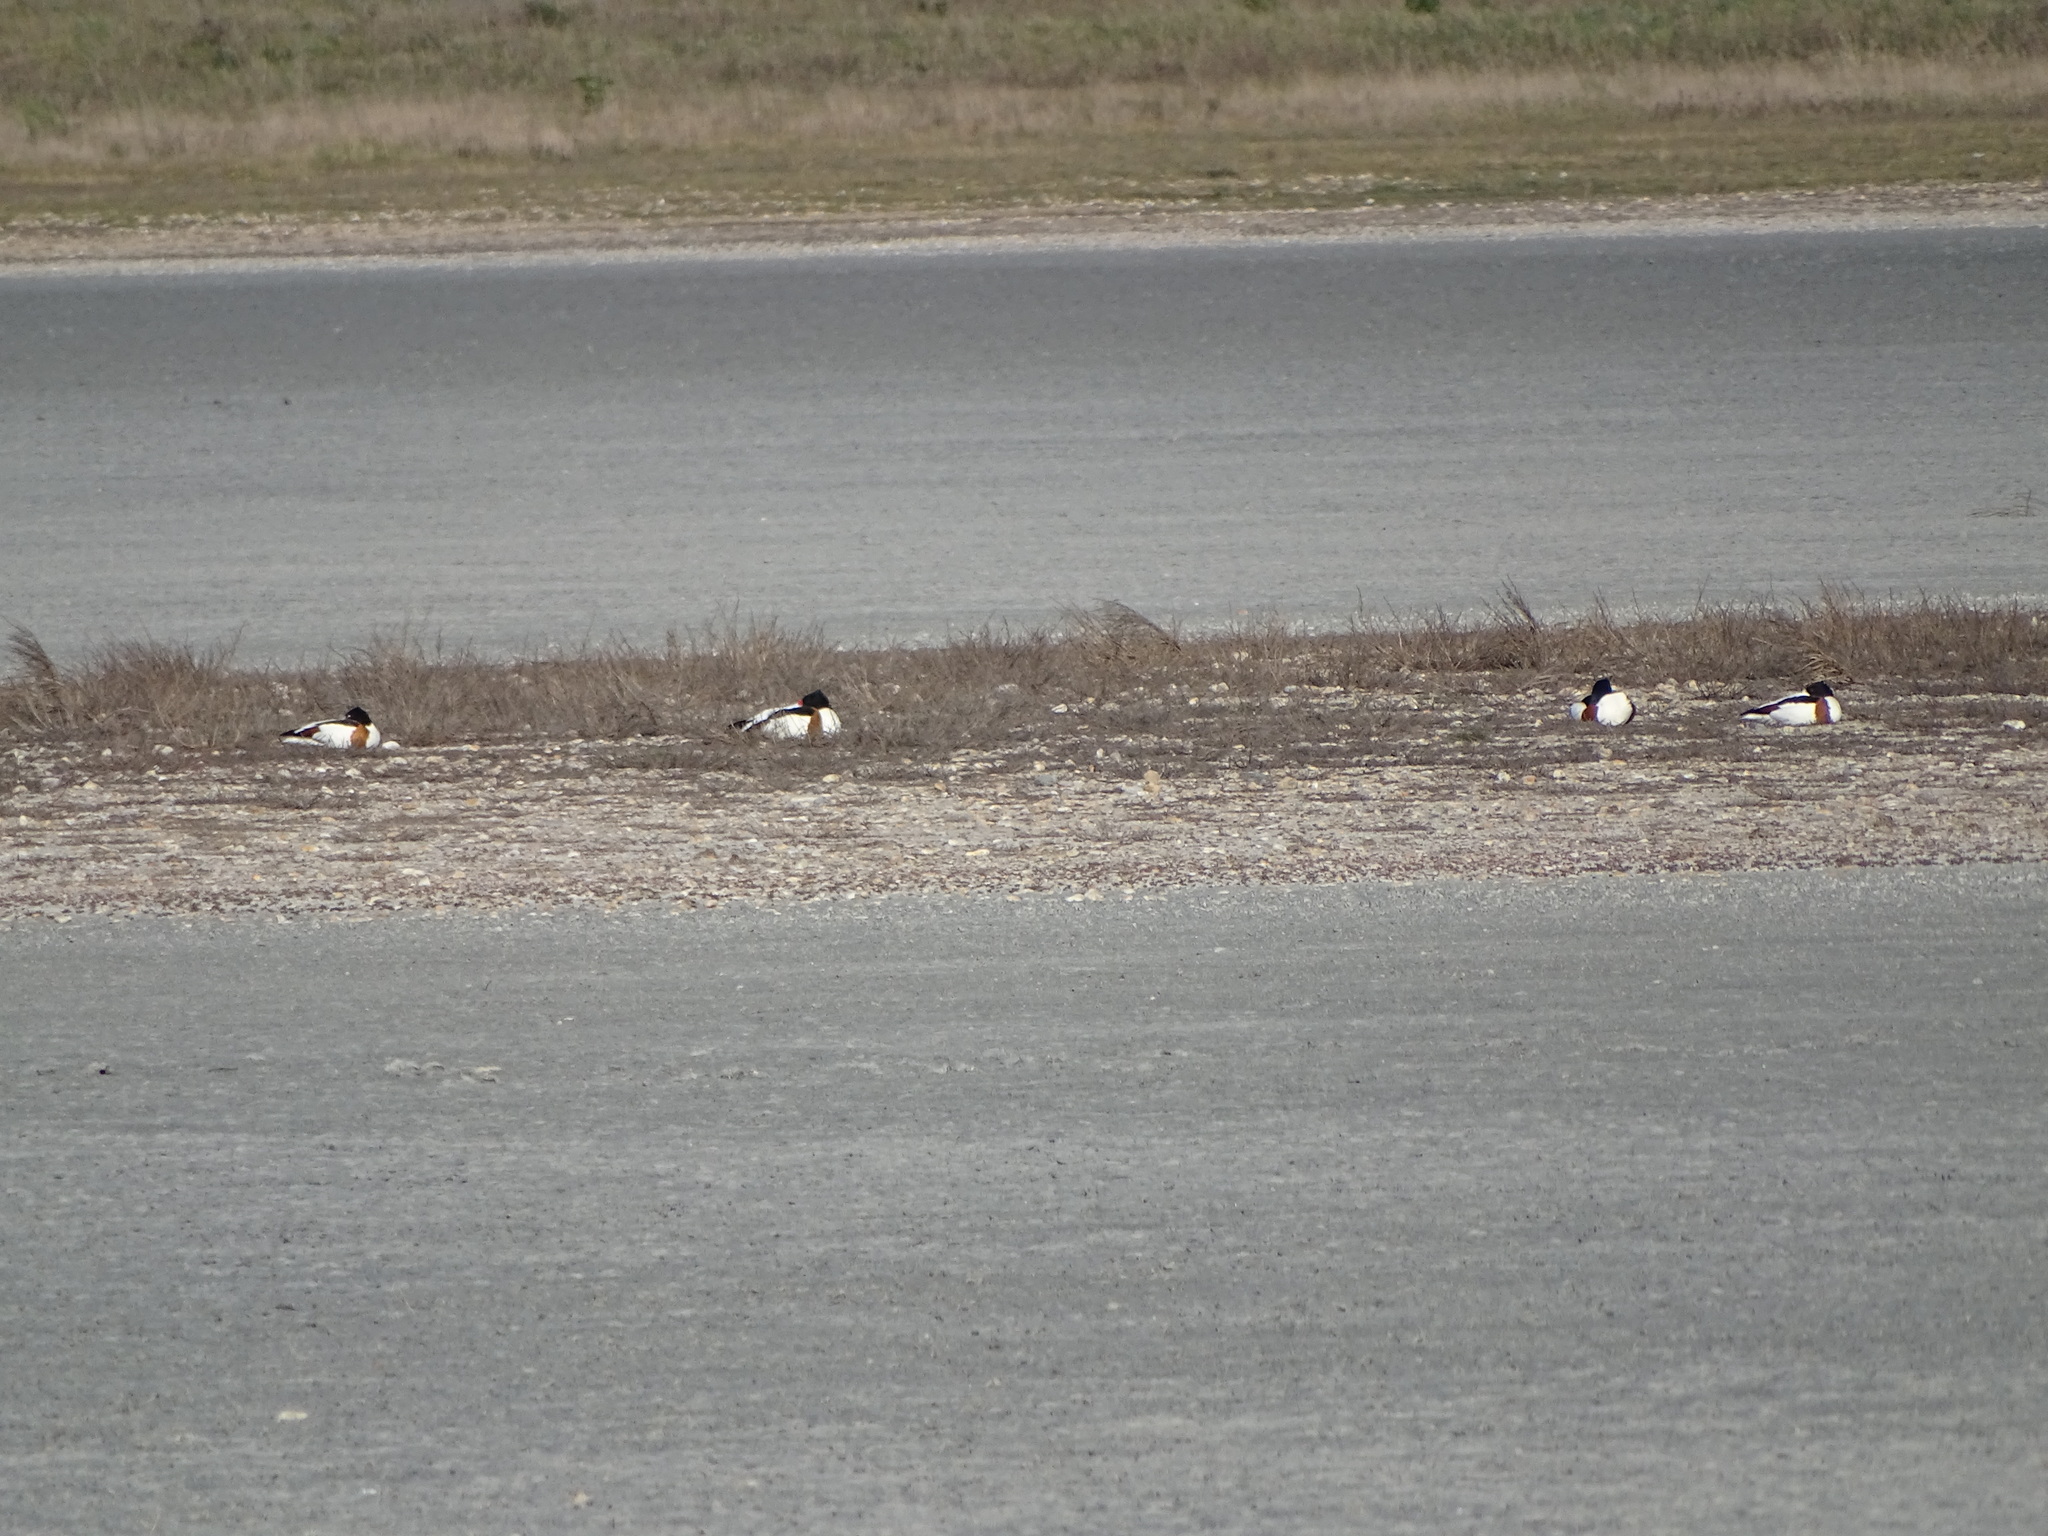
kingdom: Animalia
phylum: Chordata
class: Aves
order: Anseriformes
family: Anatidae
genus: Tadorna
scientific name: Tadorna tadorna
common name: Common shelduck
